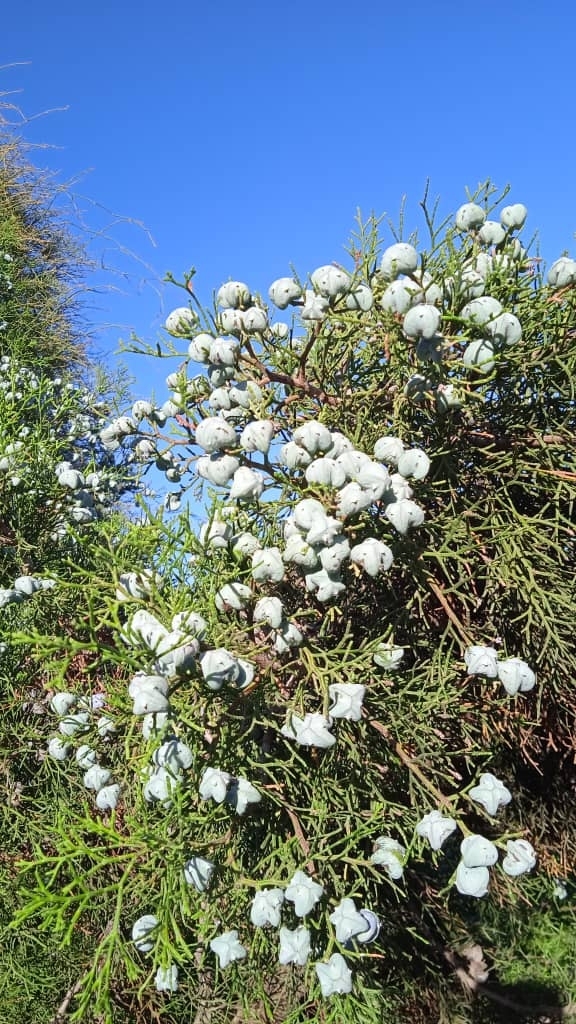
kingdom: Plantae
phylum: Tracheophyta
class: Pinopsida
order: Pinales
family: Cupressaceae
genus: Tetraclinis
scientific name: Tetraclinis articulata
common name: Sandarac
